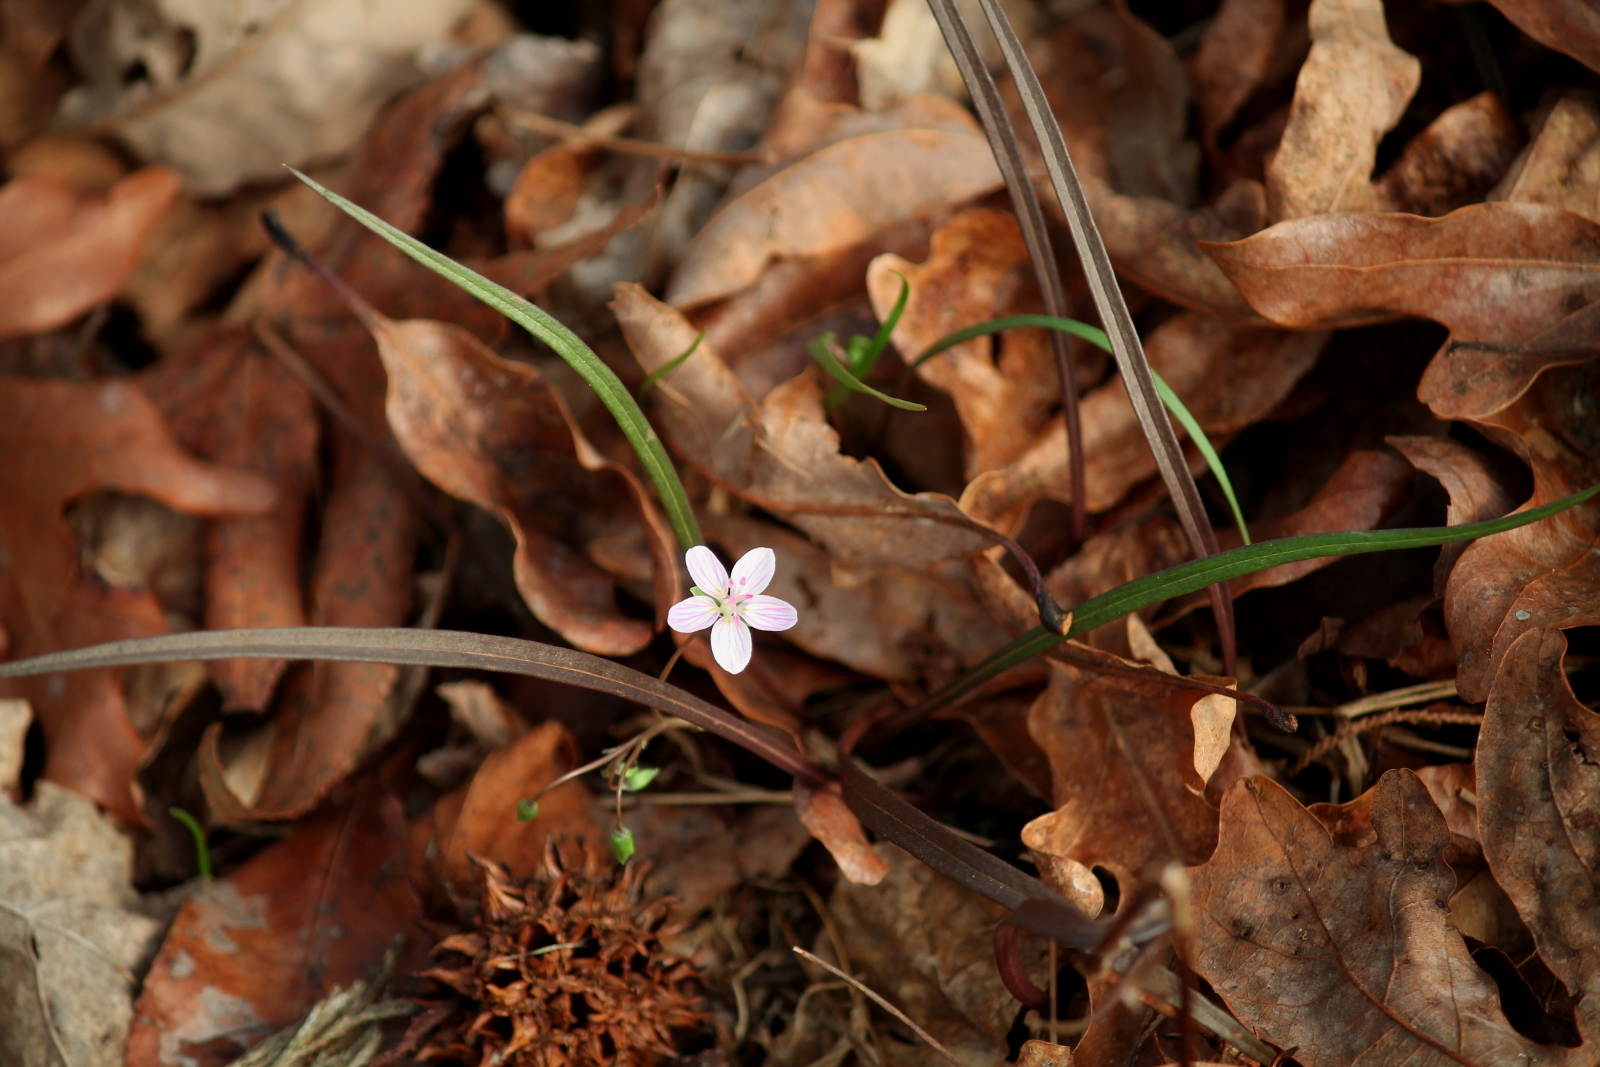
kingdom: Plantae
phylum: Tracheophyta
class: Magnoliopsida
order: Caryophyllales
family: Montiaceae
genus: Claytonia
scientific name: Claytonia virginica
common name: Virginia springbeauty
